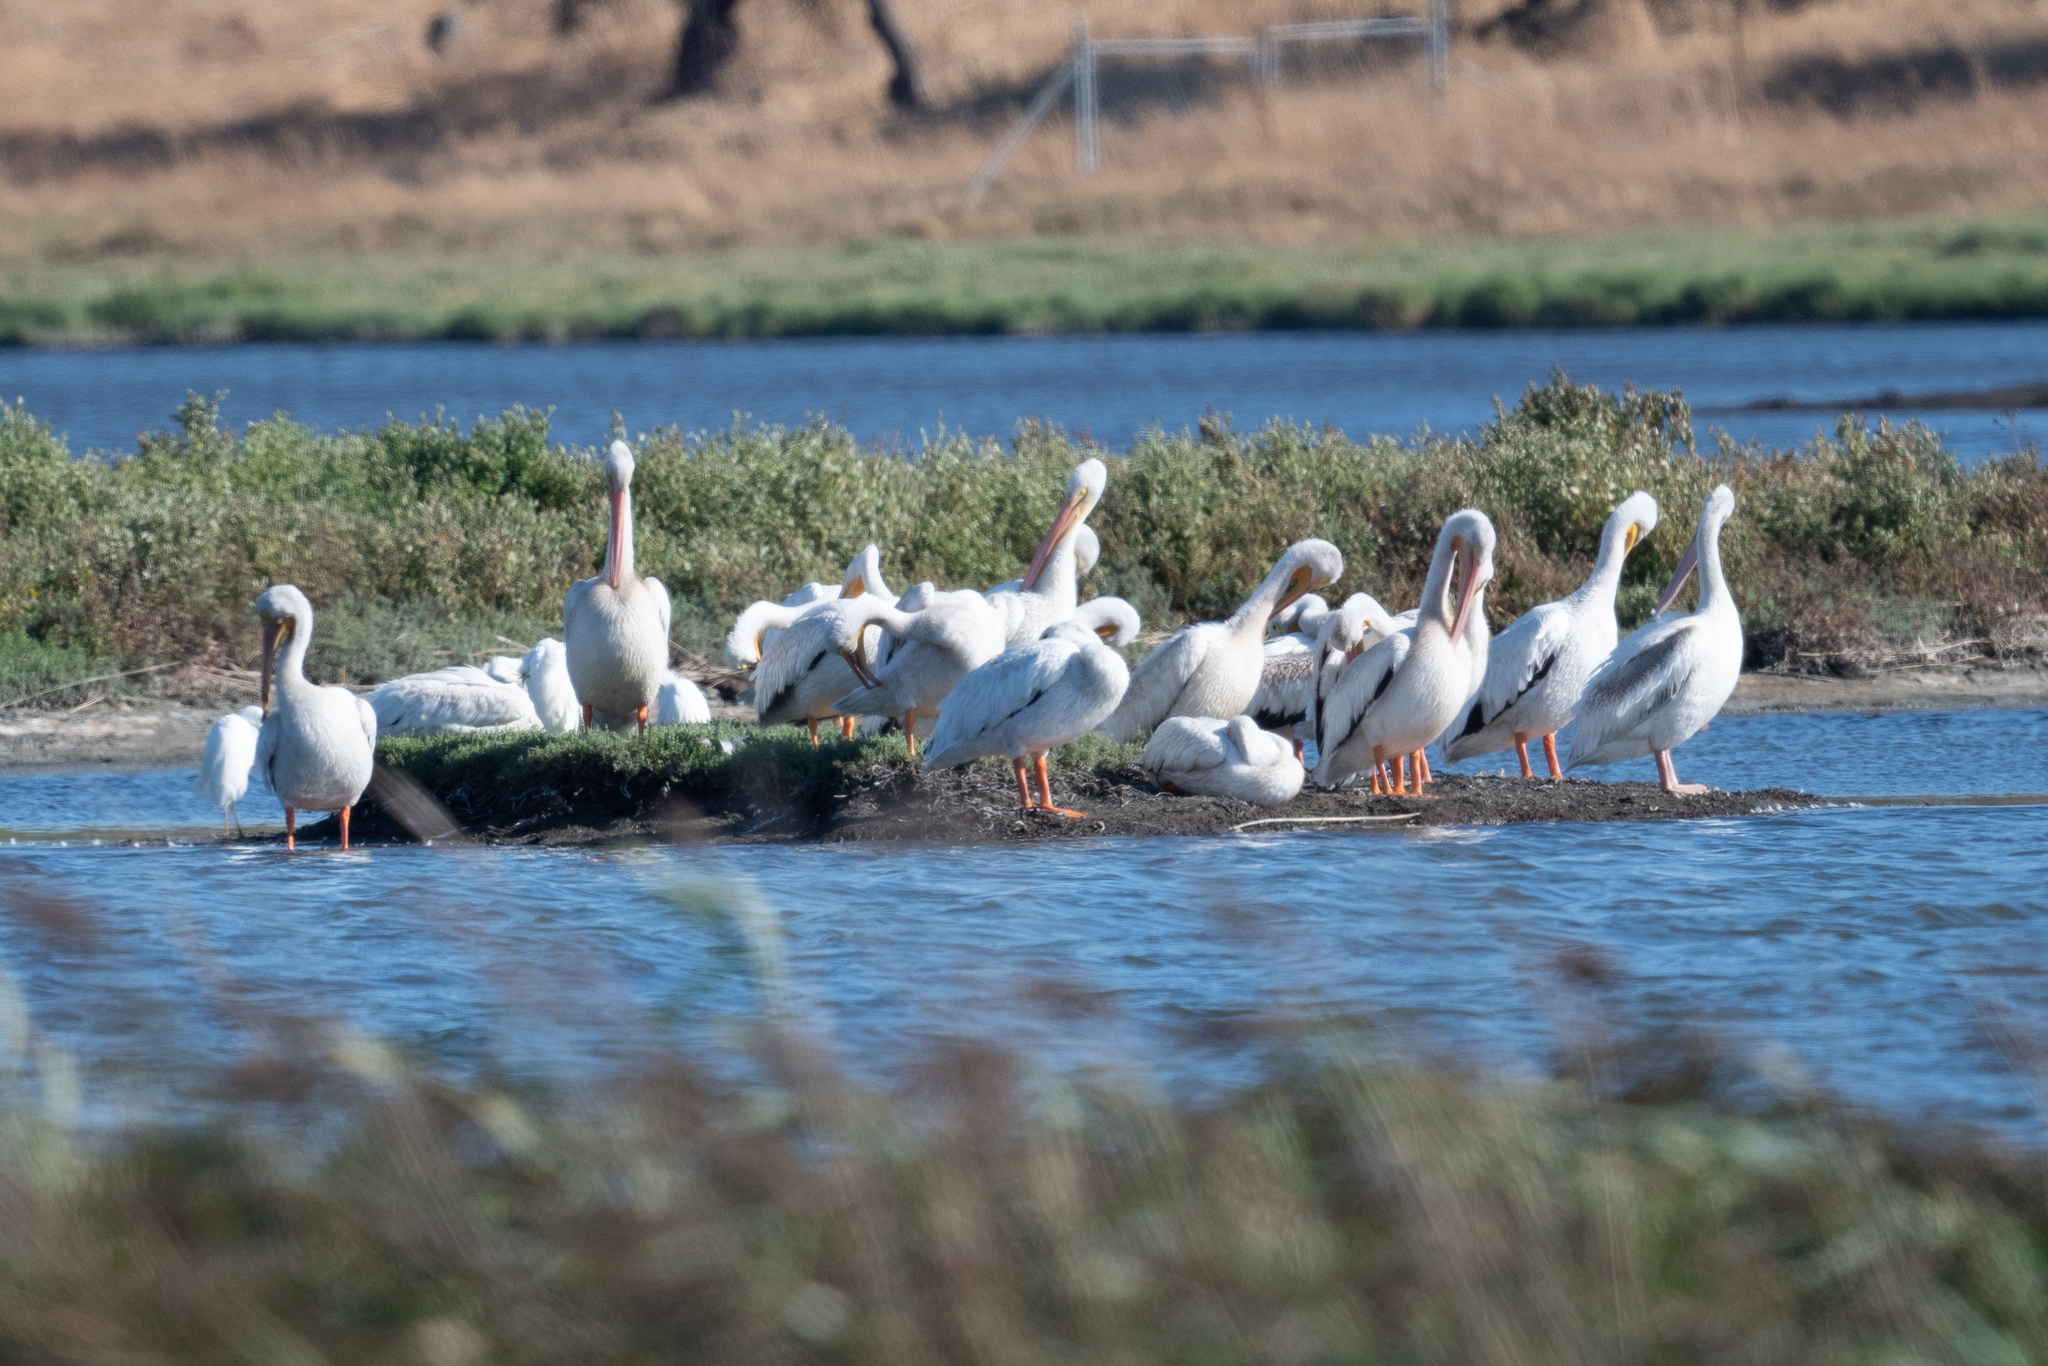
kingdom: Animalia
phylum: Chordata
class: Aves
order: Pelecaniformes
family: Pelecanidae
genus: Pelecanus
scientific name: Pelecanus erythrorhynchos
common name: American white pelican
